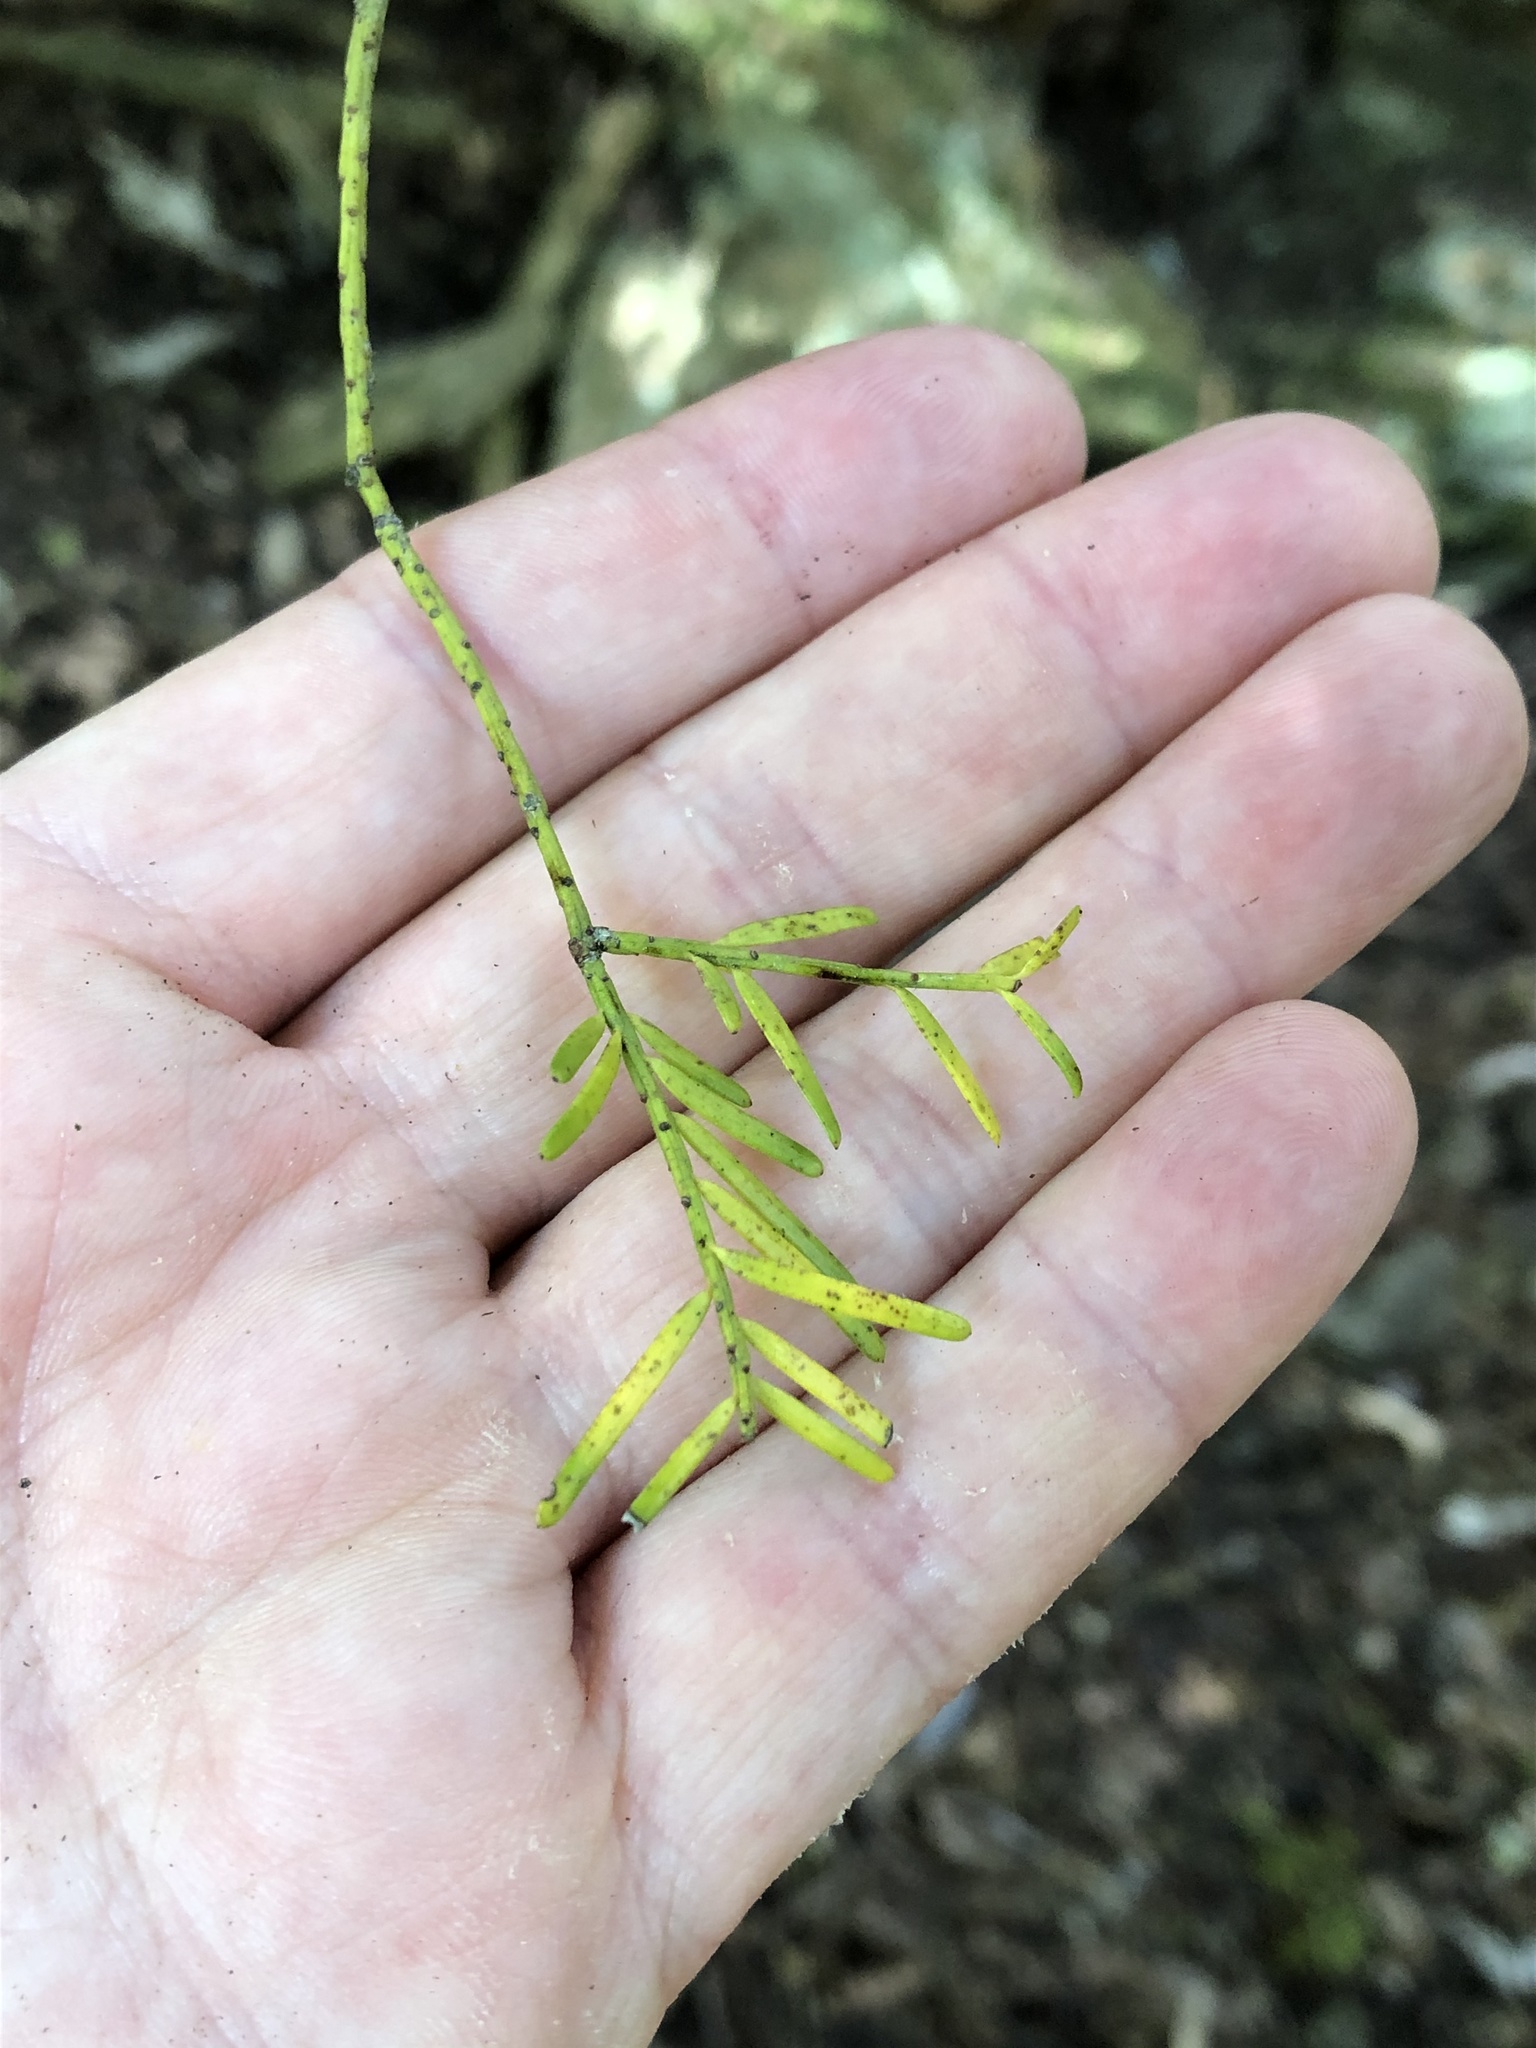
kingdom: Plantae
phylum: Tracheophyta
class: Pinopsida
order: Pinales
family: Podocarpaceae
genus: Prumnopitys
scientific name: Prumnopitys taxifolia
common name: Matai
